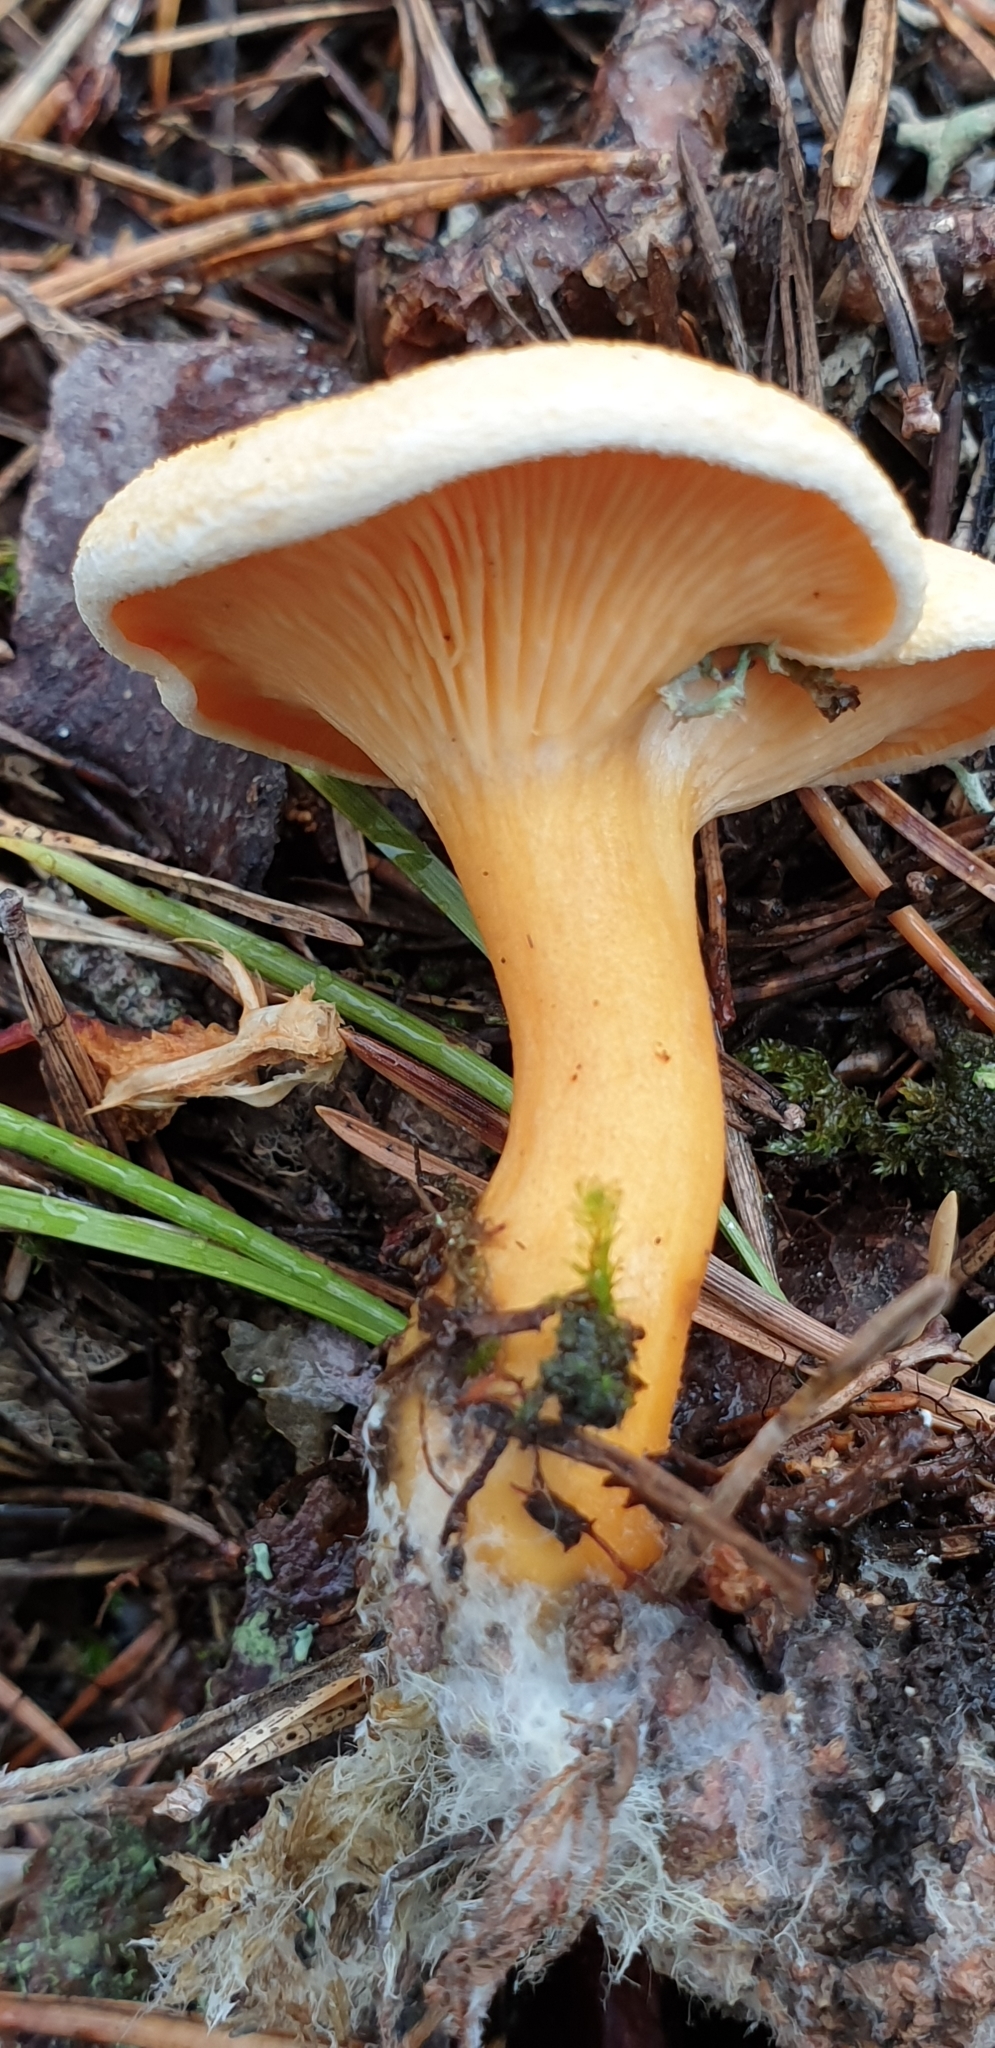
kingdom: Fungi
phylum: Basidiomycota
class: Agaricomycetes
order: Boletales
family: Hygrophoropsidaceae
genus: Hygrophoropsis
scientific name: Hygrophoropsis aurantiaca
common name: False chanterelle
